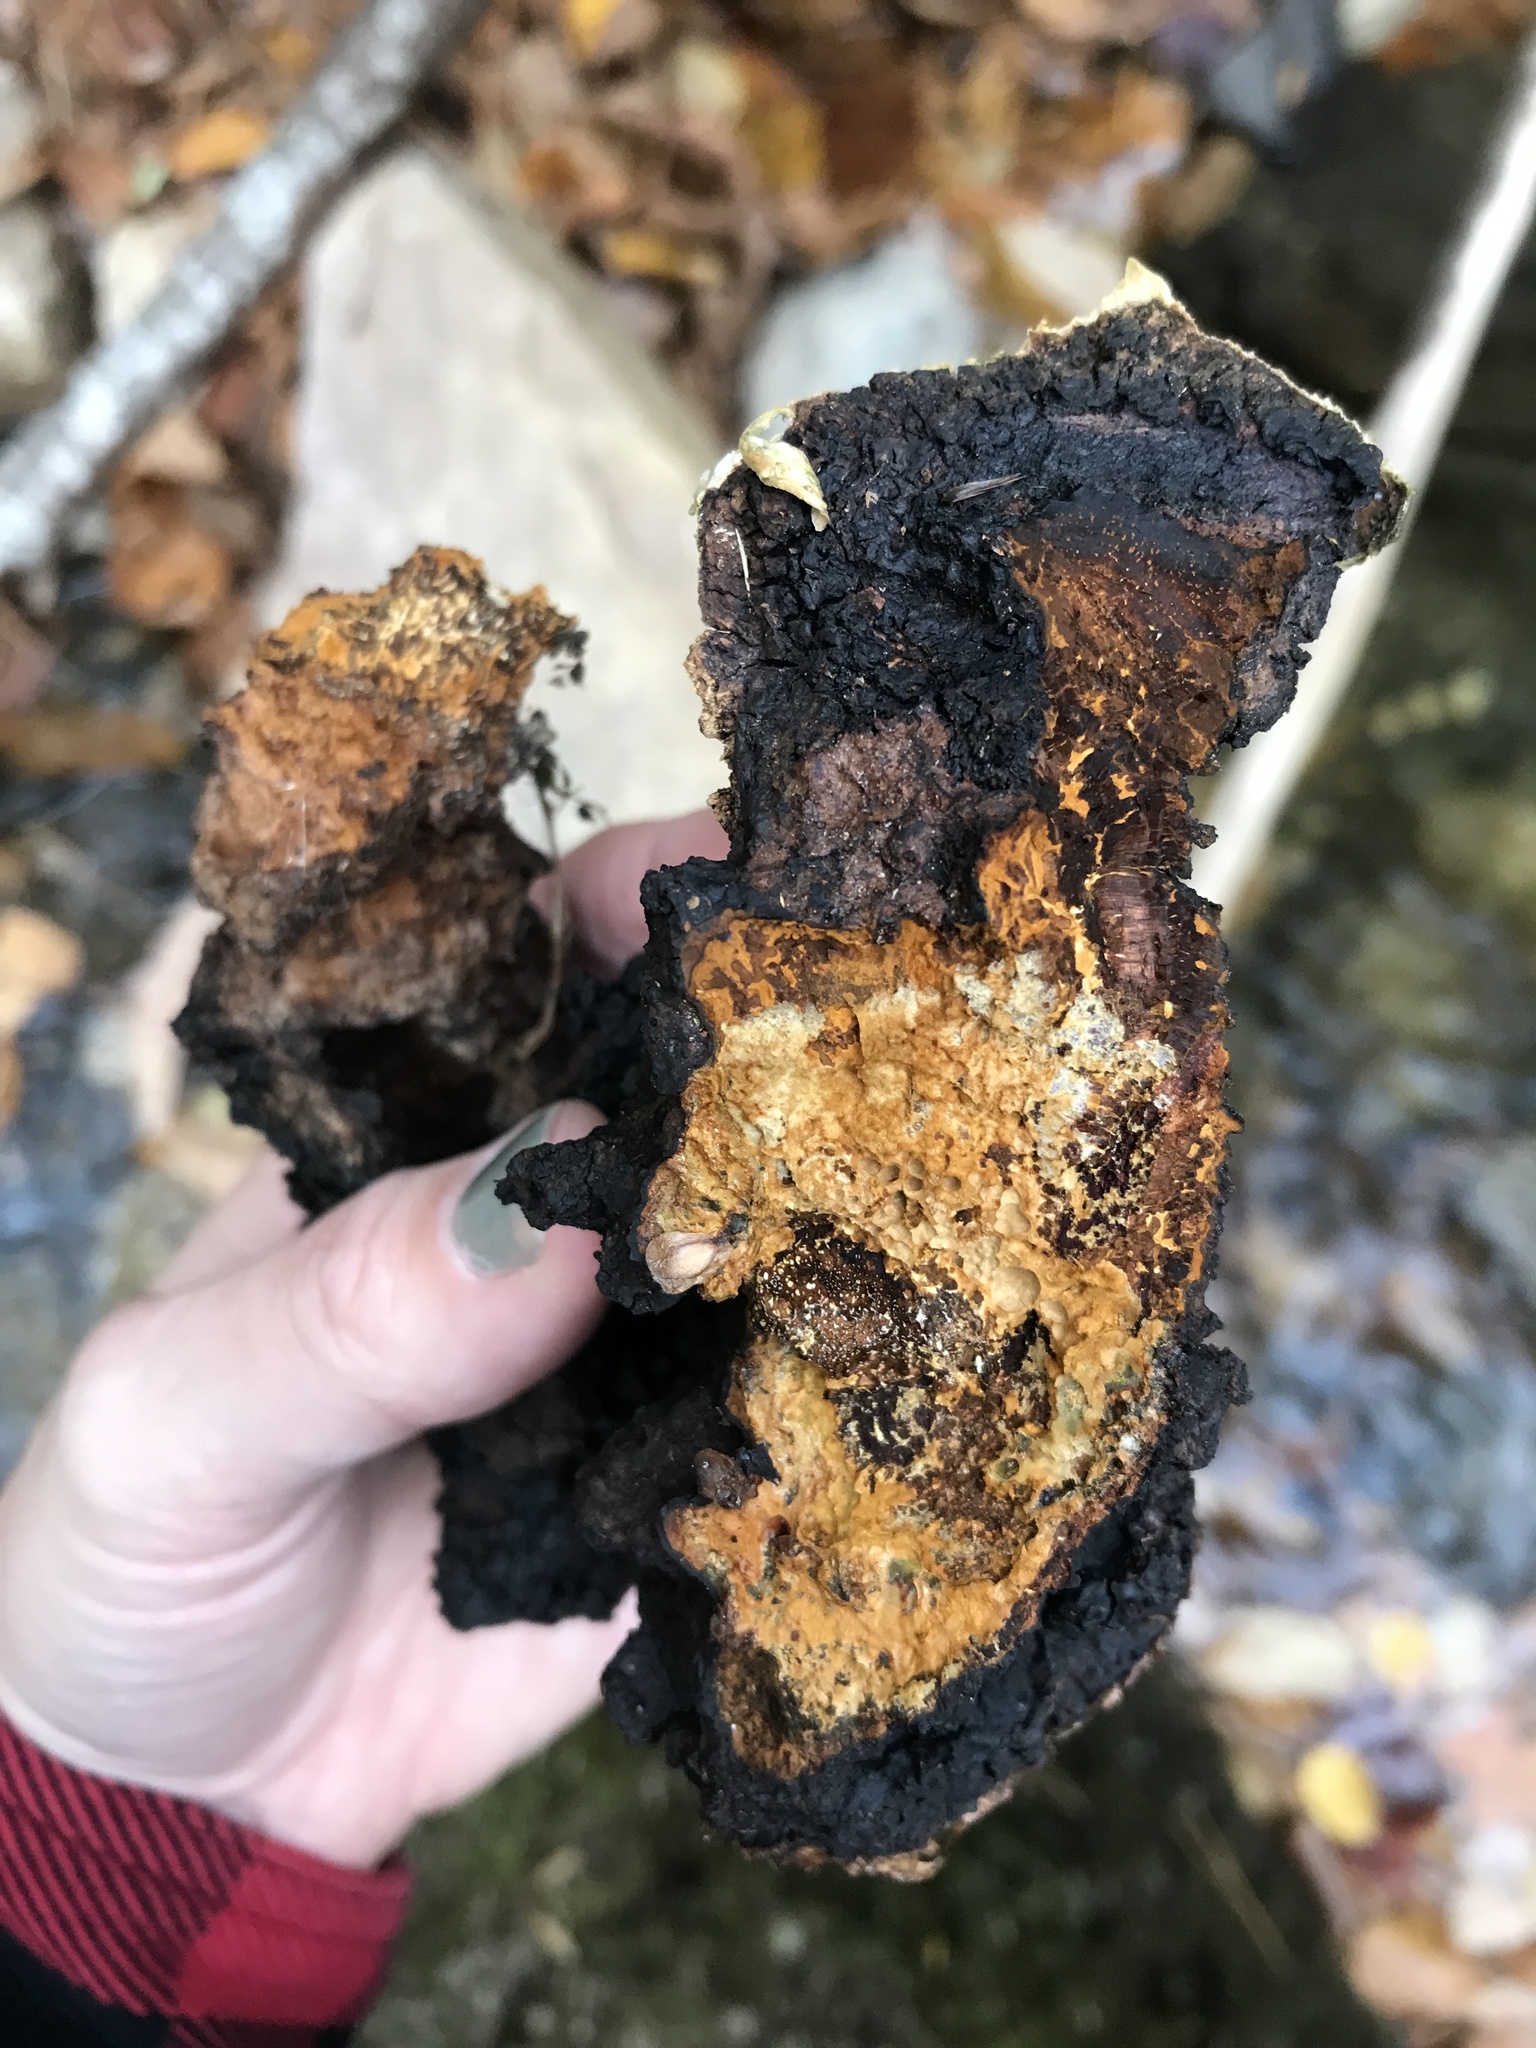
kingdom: Fungi
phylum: Basidiomycota
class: Agaricomycetes
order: Hymenochaetales
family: Hymenochaetaceae
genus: Inonotus
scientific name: Inonotus obliquus
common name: Chaga
